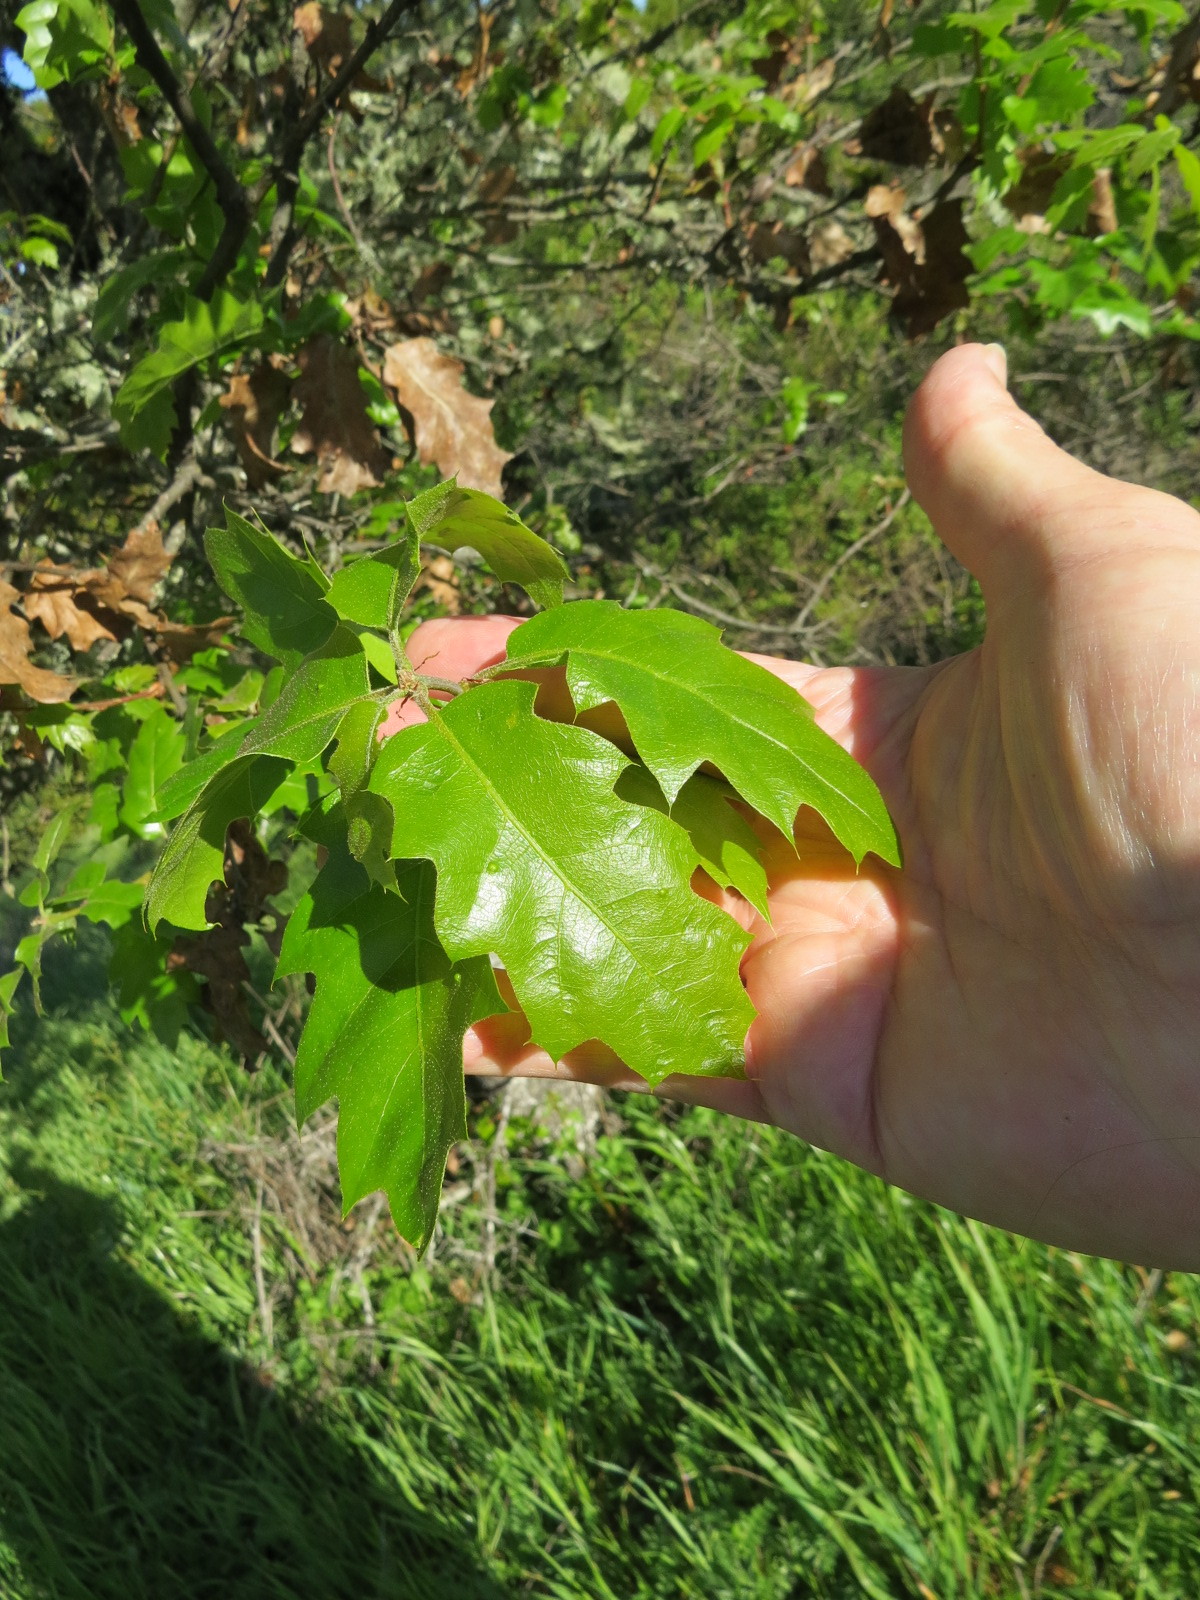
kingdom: Animalia
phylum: Arthropoda
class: Insecta
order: Hymenoptera
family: Cynipidae
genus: Callirhytis
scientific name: Callirhytis
